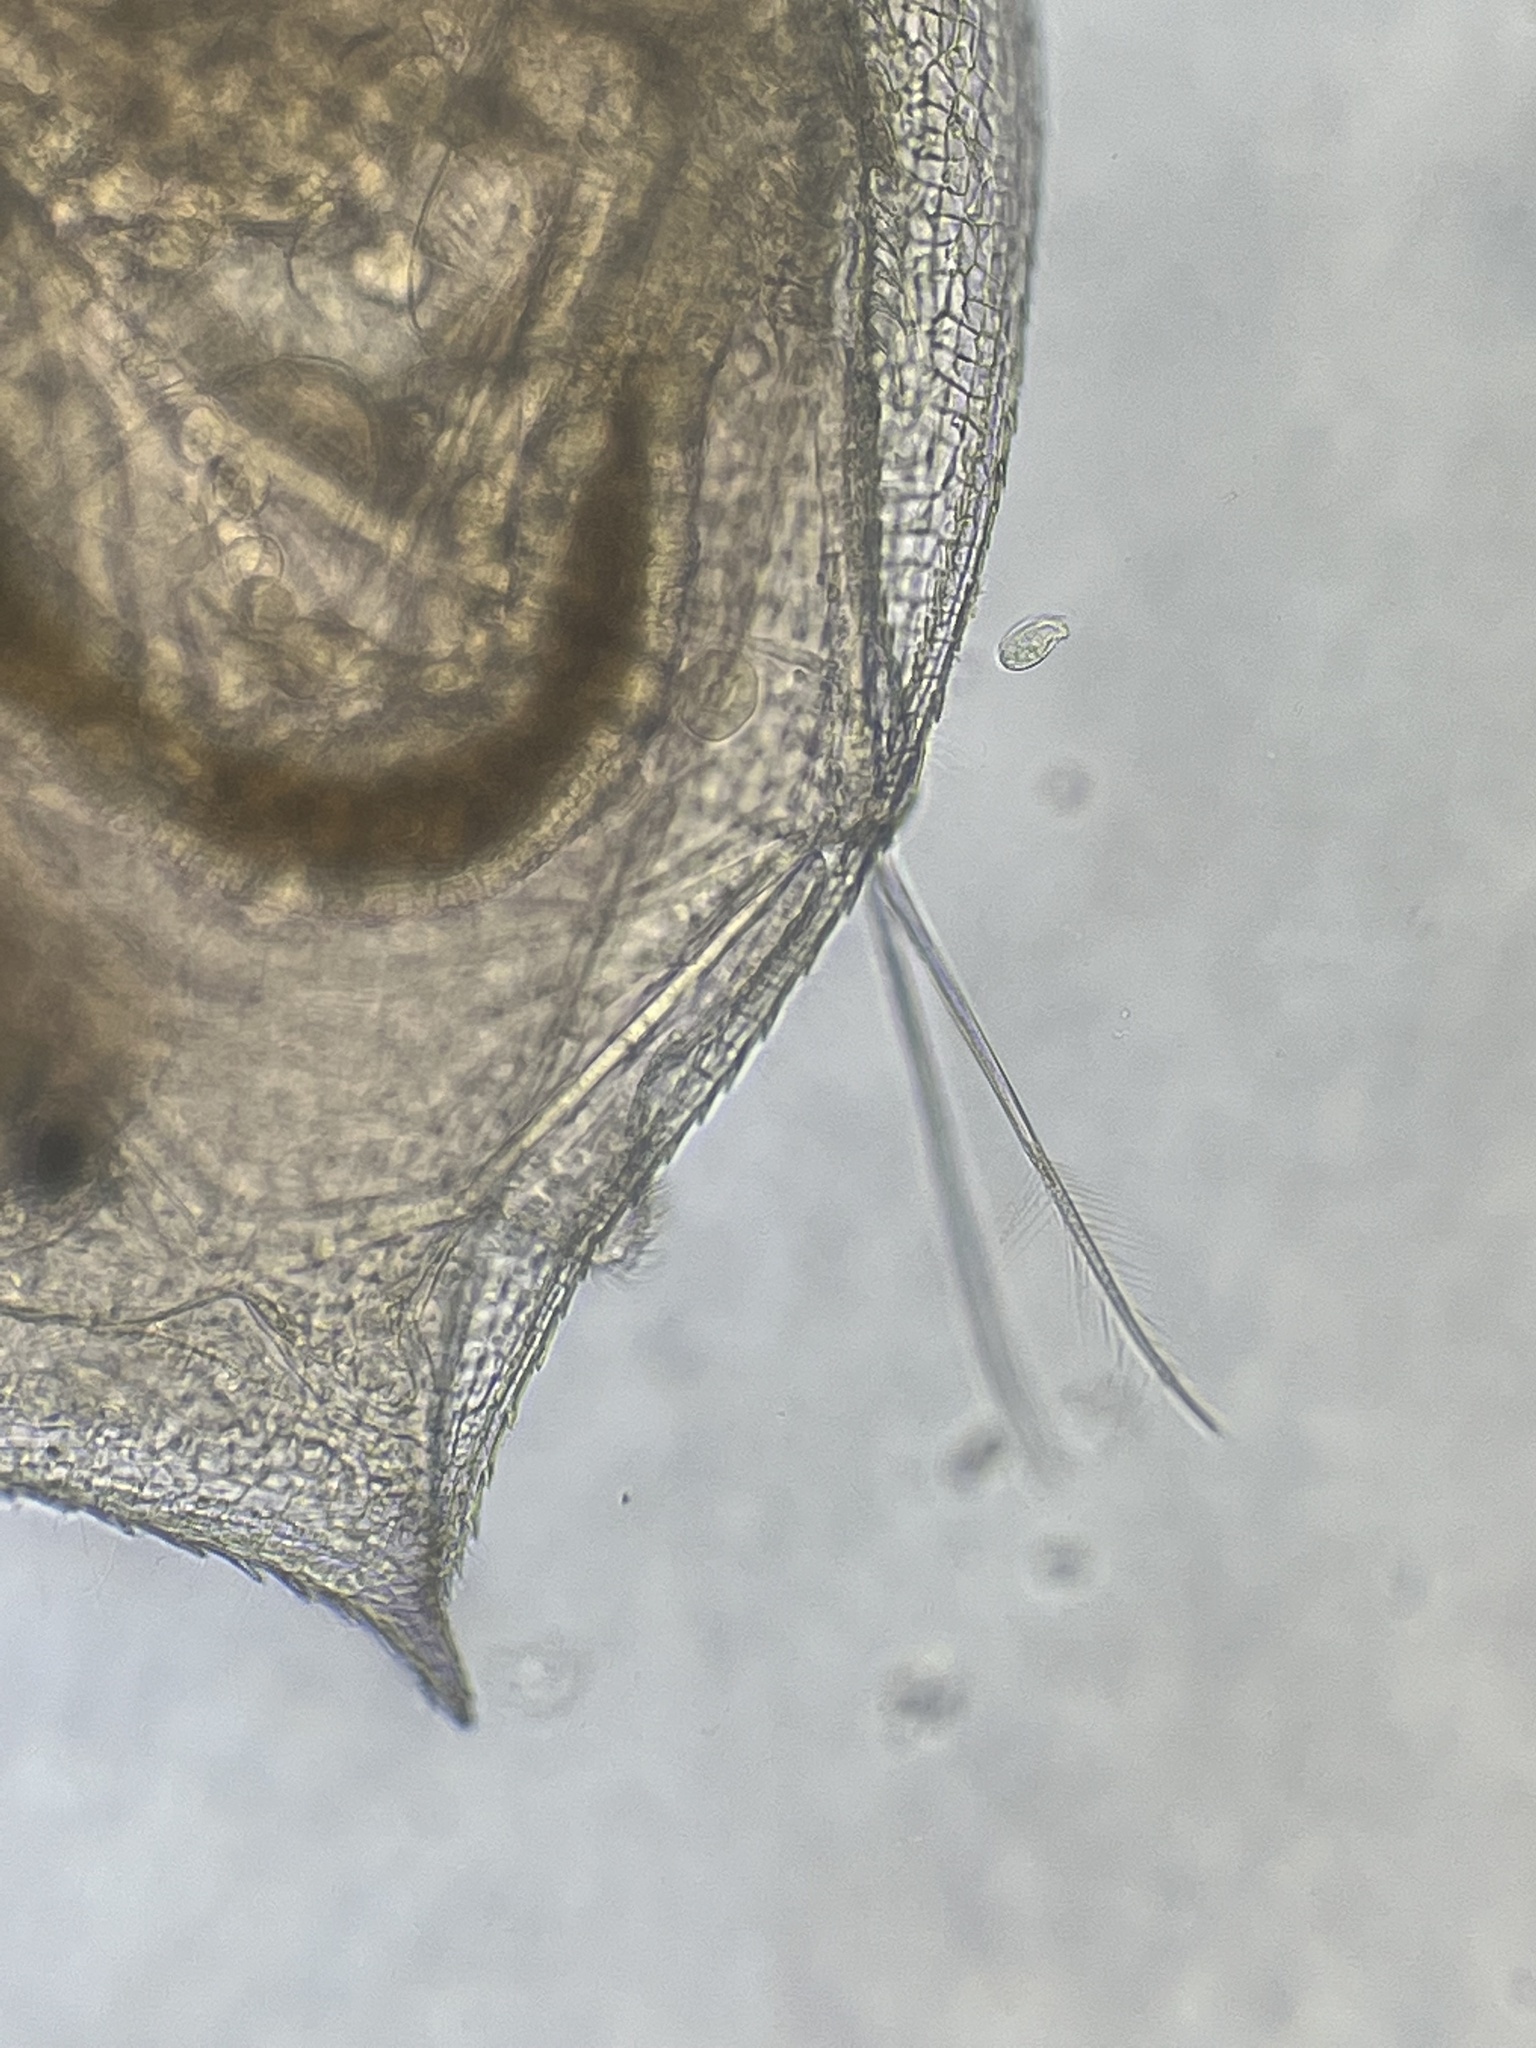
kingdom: Animalia
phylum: Arthropoda
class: Branchiopoda
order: Diplostraca
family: Daphniidae
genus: Daphnia
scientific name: Daphnia obtusa
